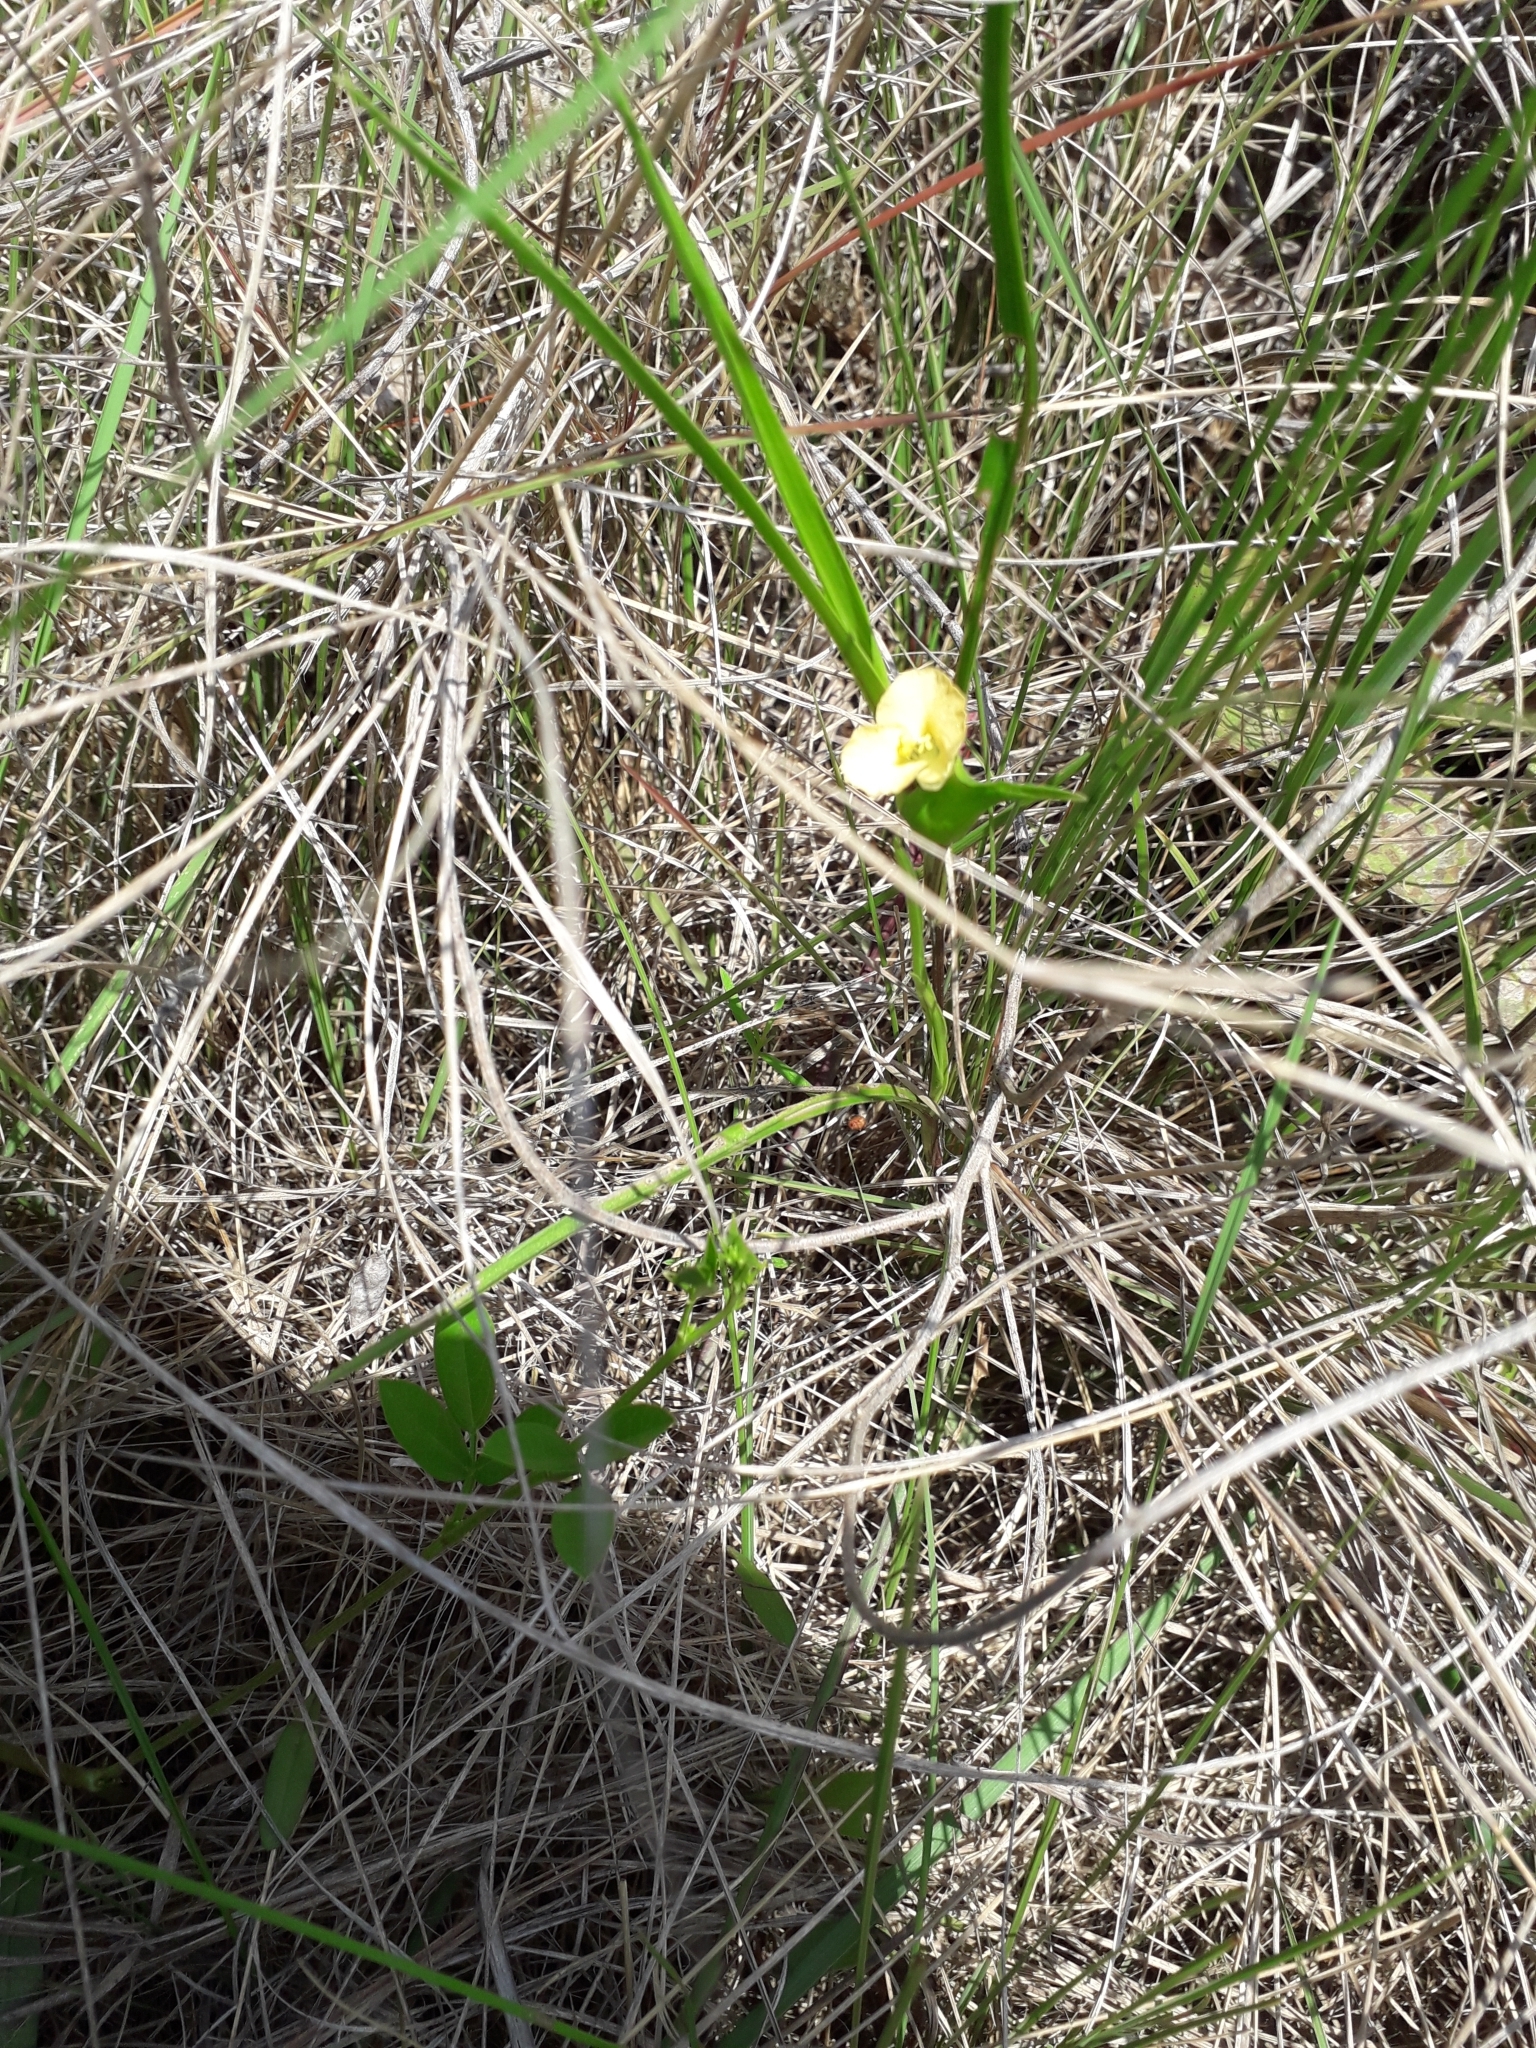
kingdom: Plantae
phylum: Tracheophyta
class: Liliopsida
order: Commelinales
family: Commelinaceae
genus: Commelina
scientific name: Commelina africana
